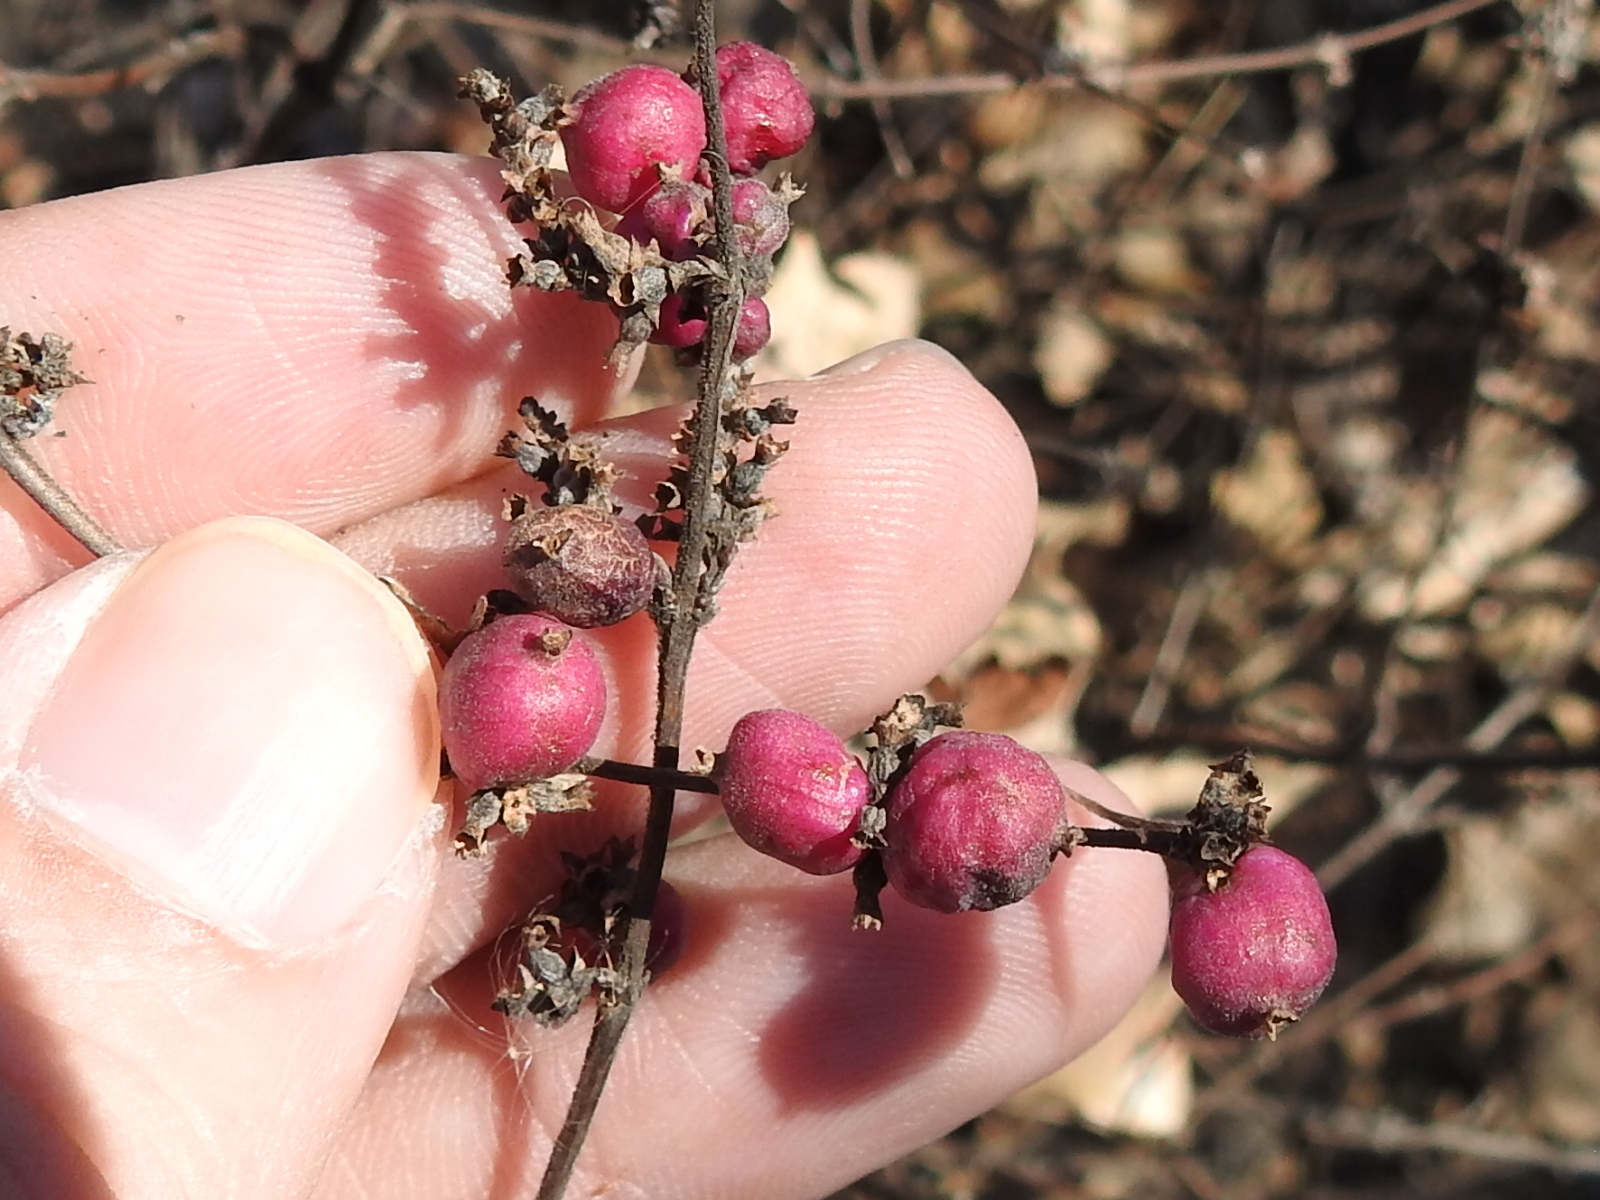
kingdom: Plantae
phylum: Tracheophyta
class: Magnoliopsida
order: Dipsacales
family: Caprifoliaceae
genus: Symphoricarpos
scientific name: Symphoricarpos orbiculatus
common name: Coralberry
